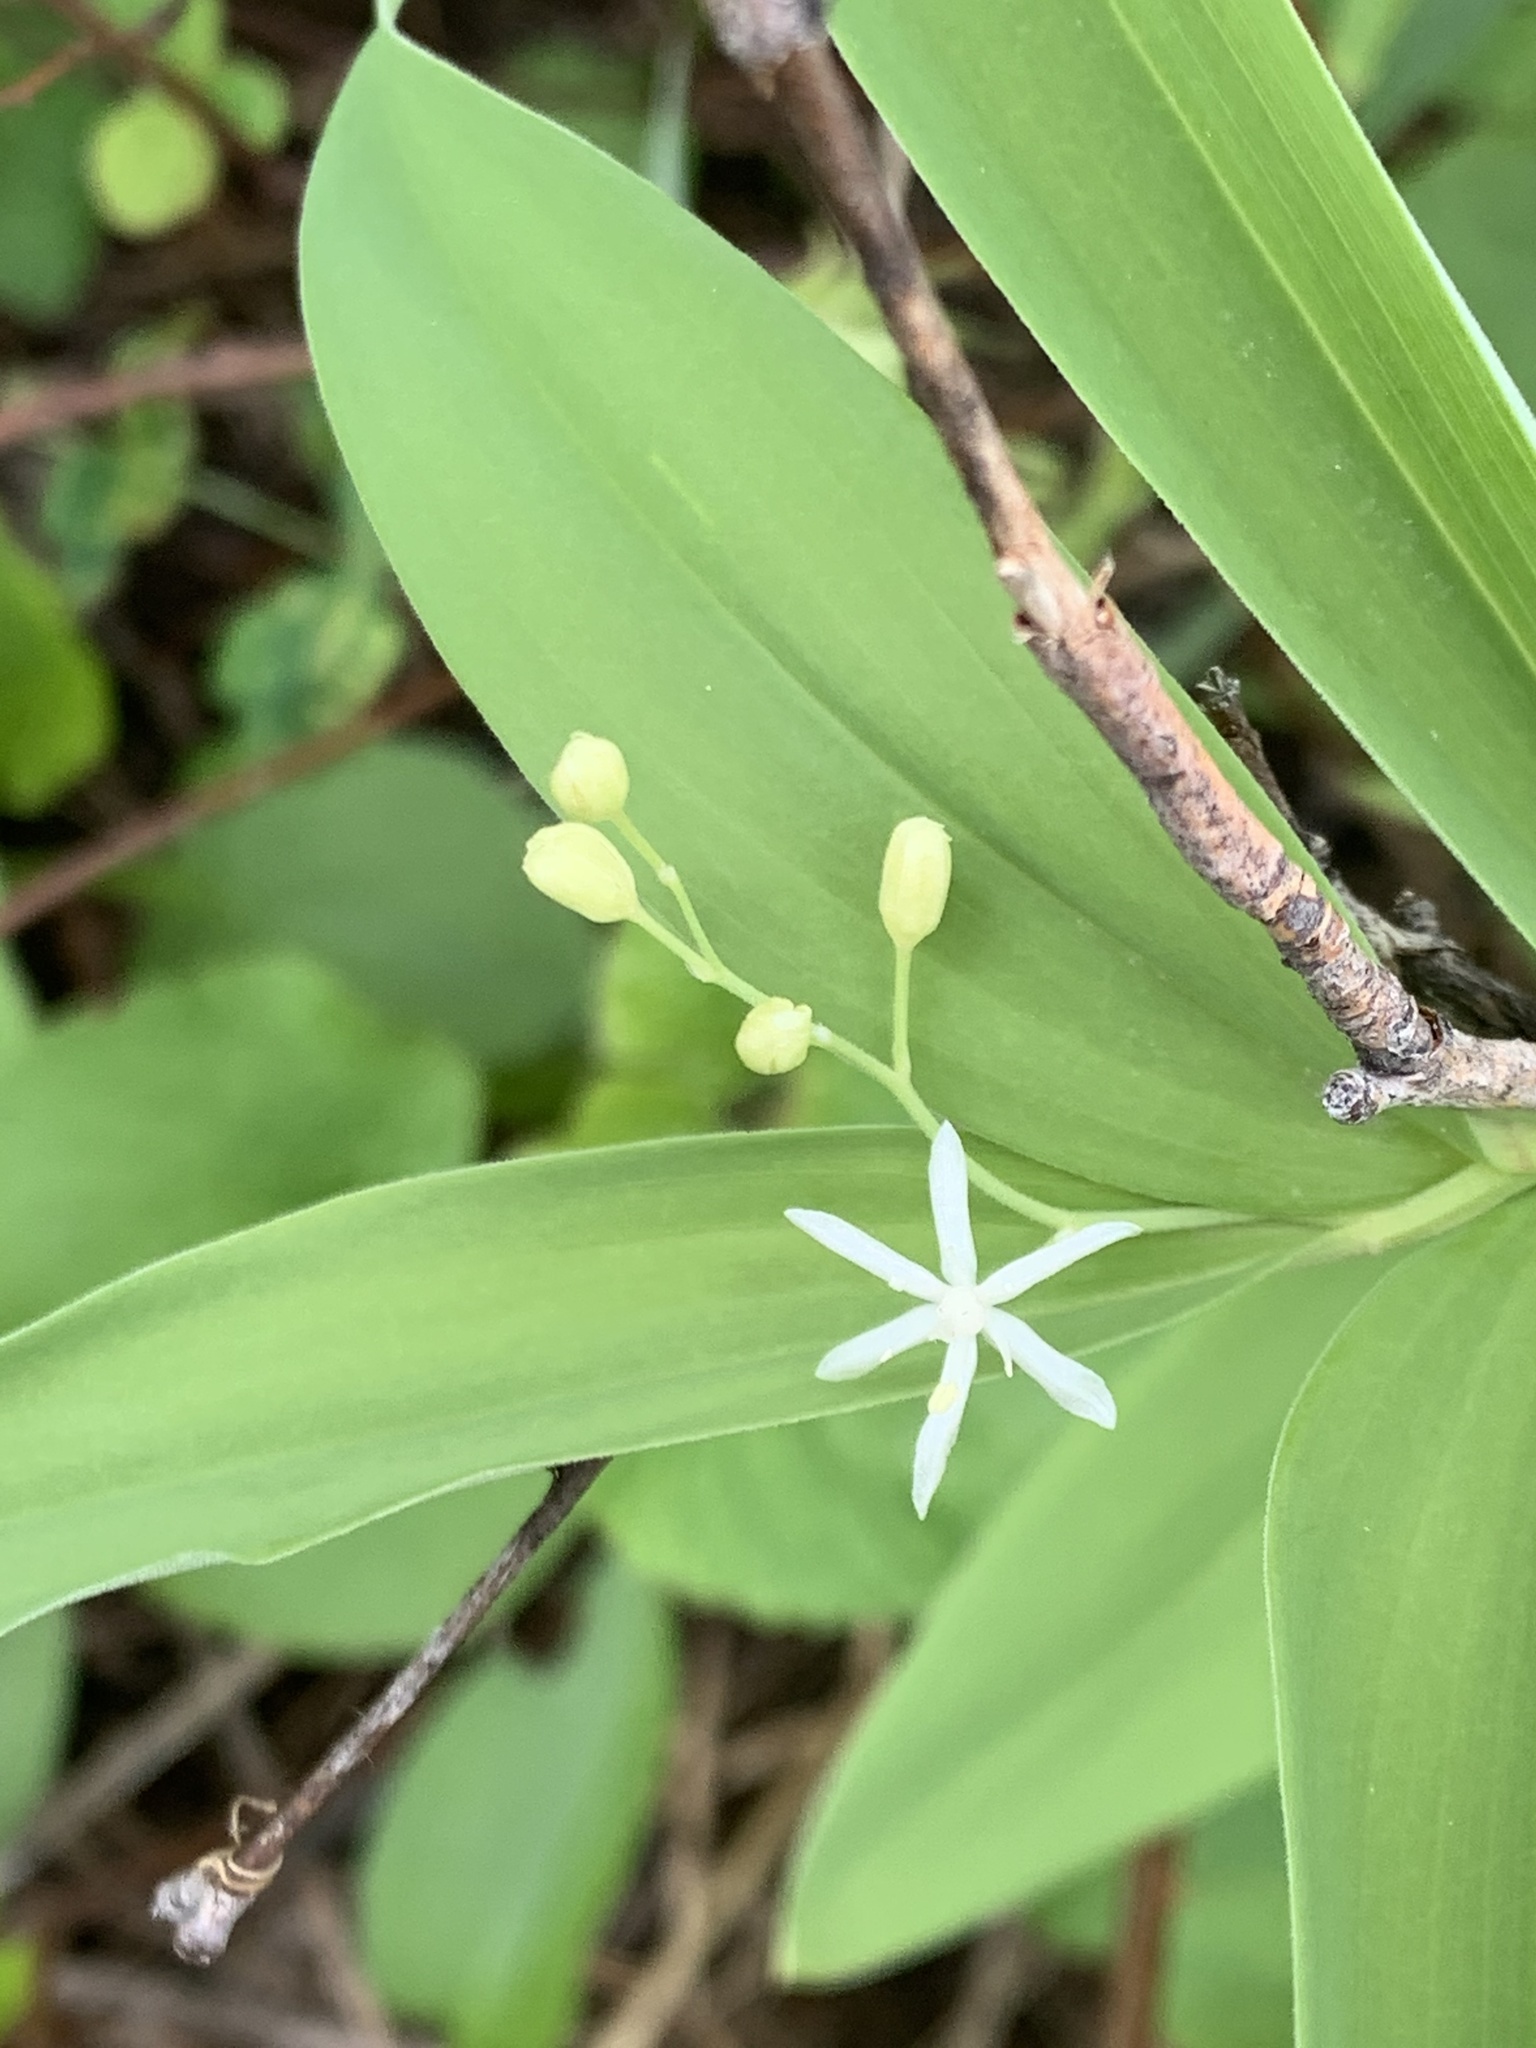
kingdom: Plantae
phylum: Tracheophyta
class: Liliopsida
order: Asparagales
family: Asparagaceae
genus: Maianthemum
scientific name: Maianthemum stellatum
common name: Little false solomon's seal
